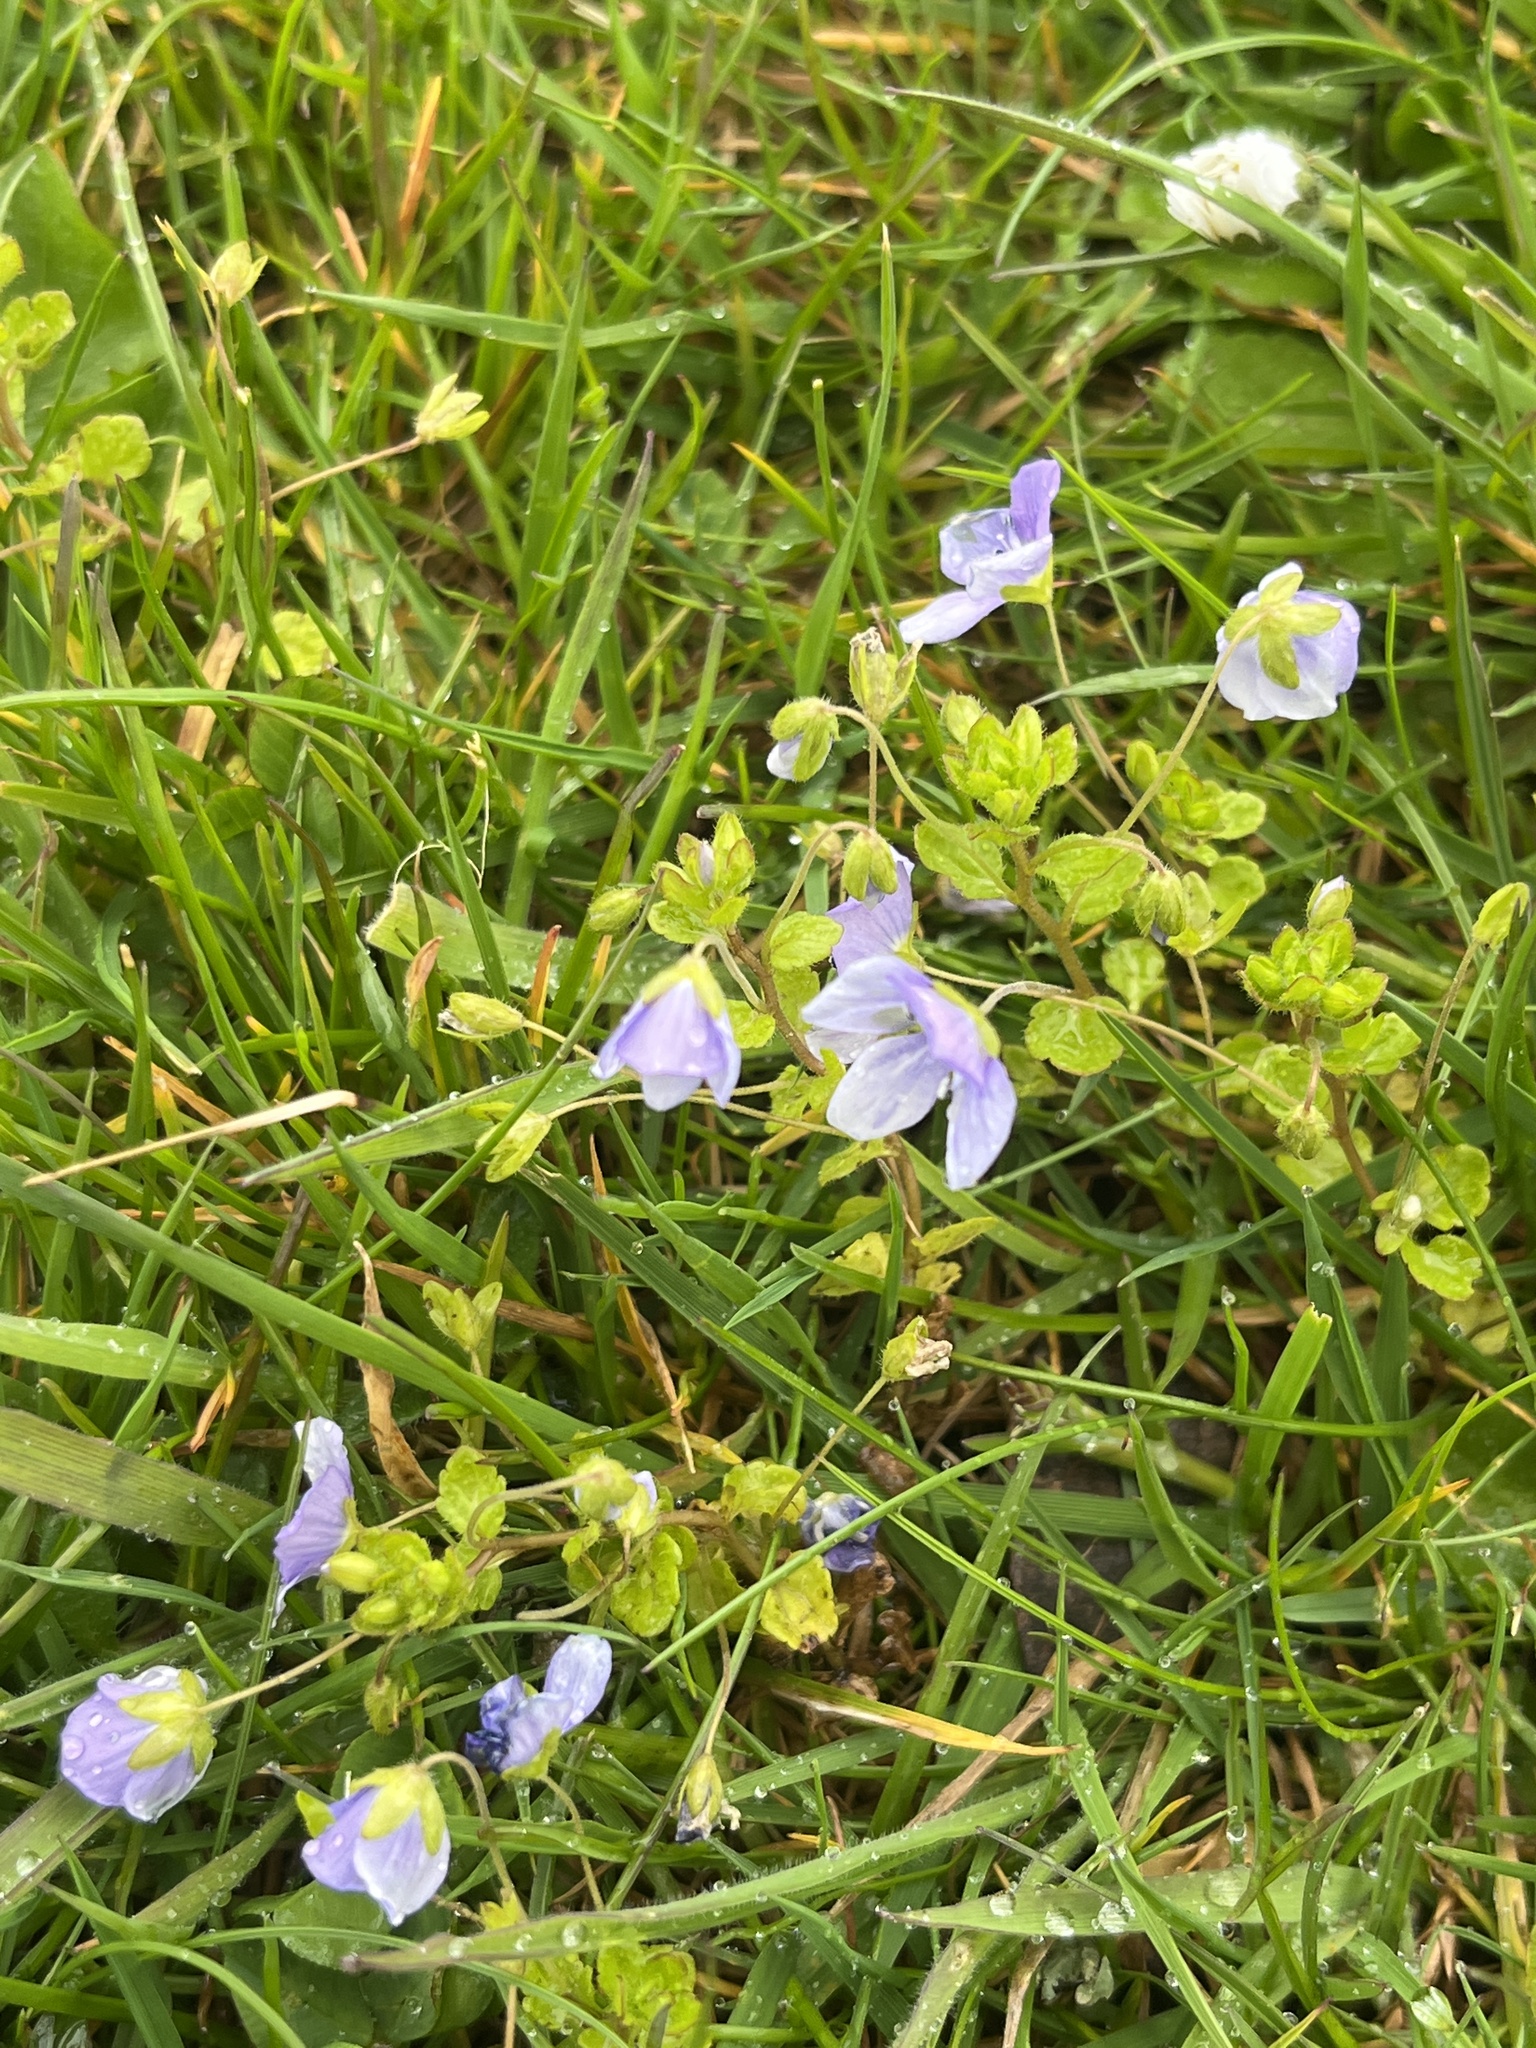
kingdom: Plantae
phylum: Tracheophyta
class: Magnoliopsida
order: Lamiales
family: Plantaginaceae
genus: Veronica
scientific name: Veronica filiformis
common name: Slender speedwell
